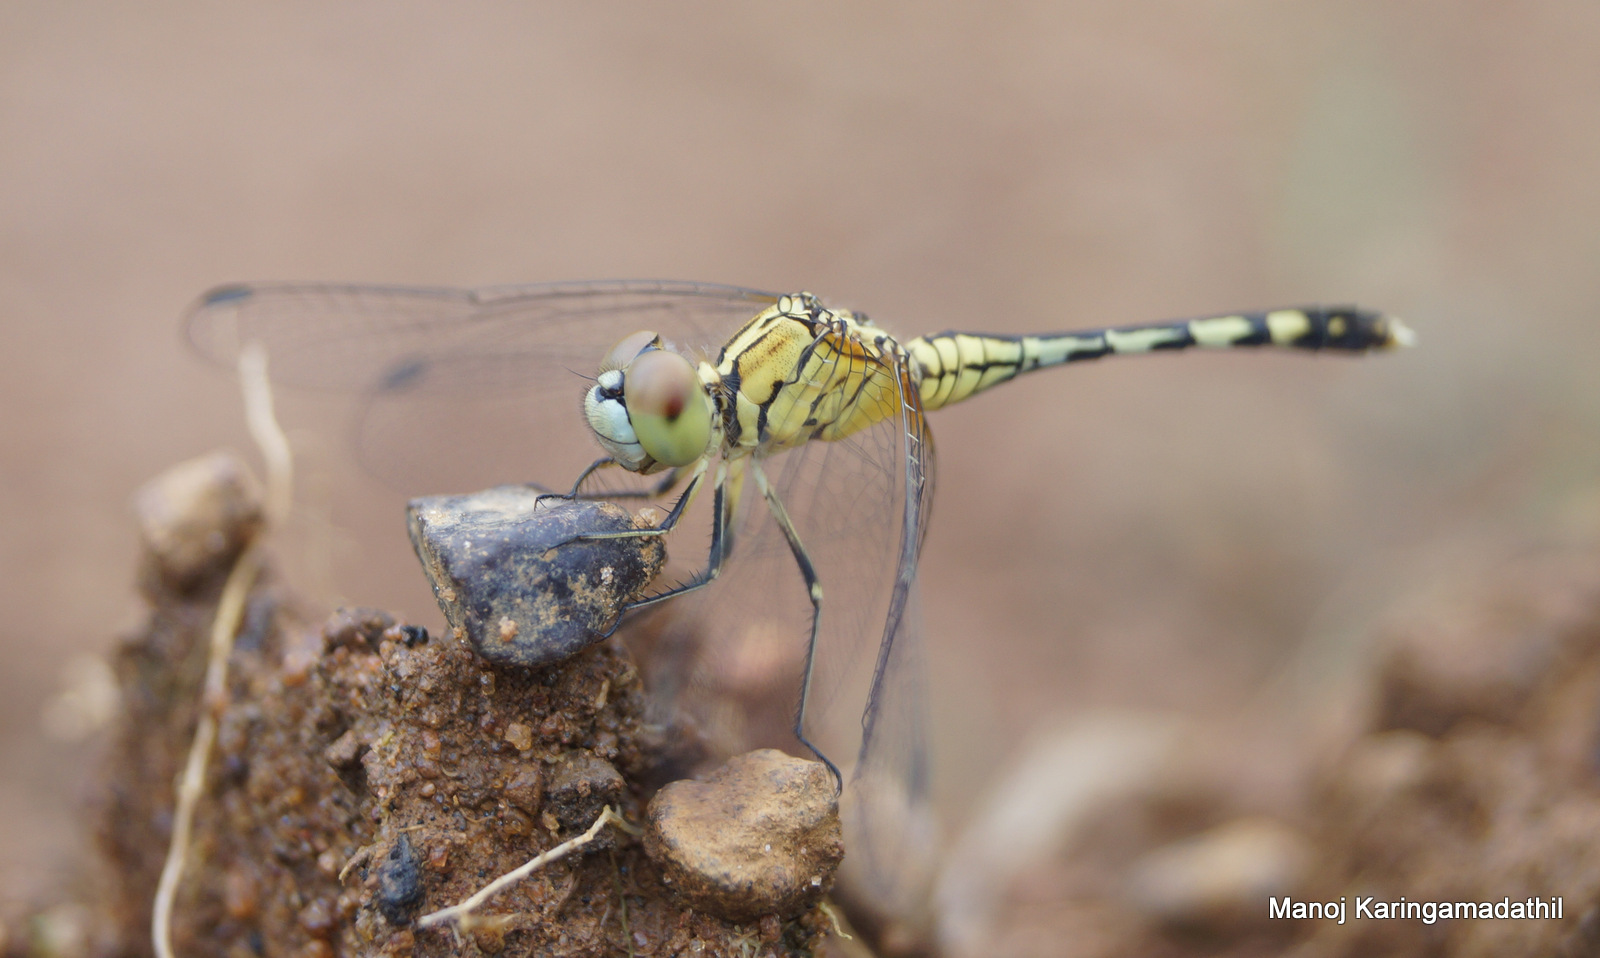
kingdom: Animalia
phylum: Arthropoda
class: Insecta
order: Odonata
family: Libellulidae
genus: Diplacodes
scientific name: Diplacodes trivialis
